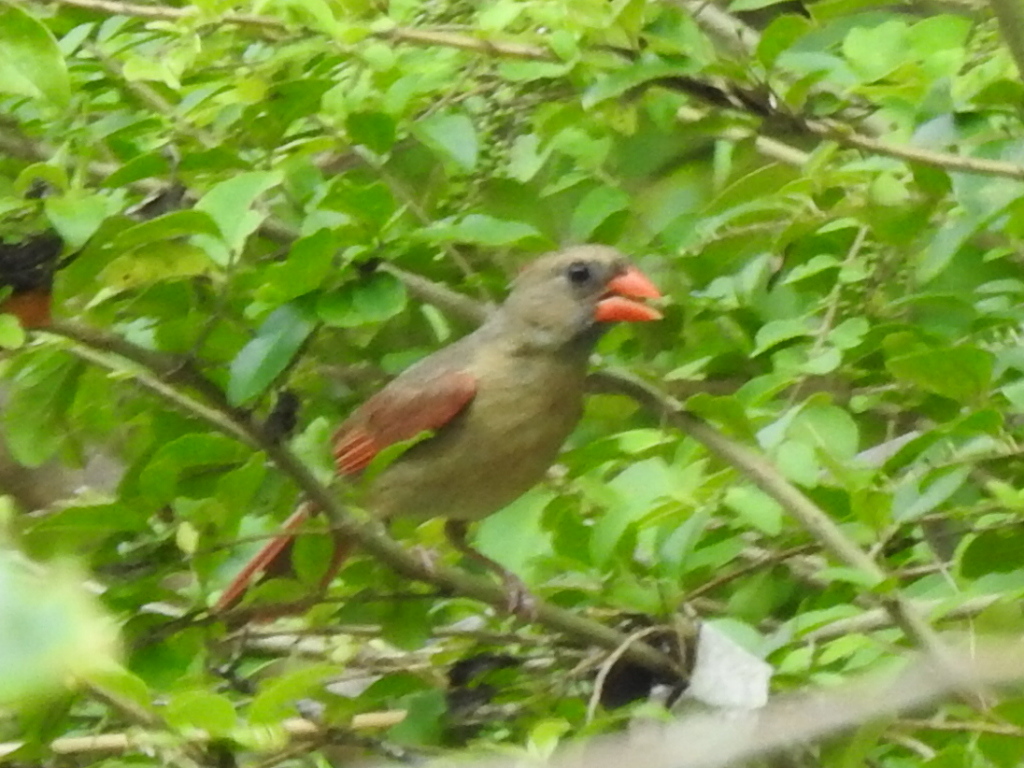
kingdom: Animalia
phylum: Chordata
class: Aves
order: Passeriformes
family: Cardinalidae
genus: Cardinalis
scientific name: Cardinalis cardinalis
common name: Northern cardinal
